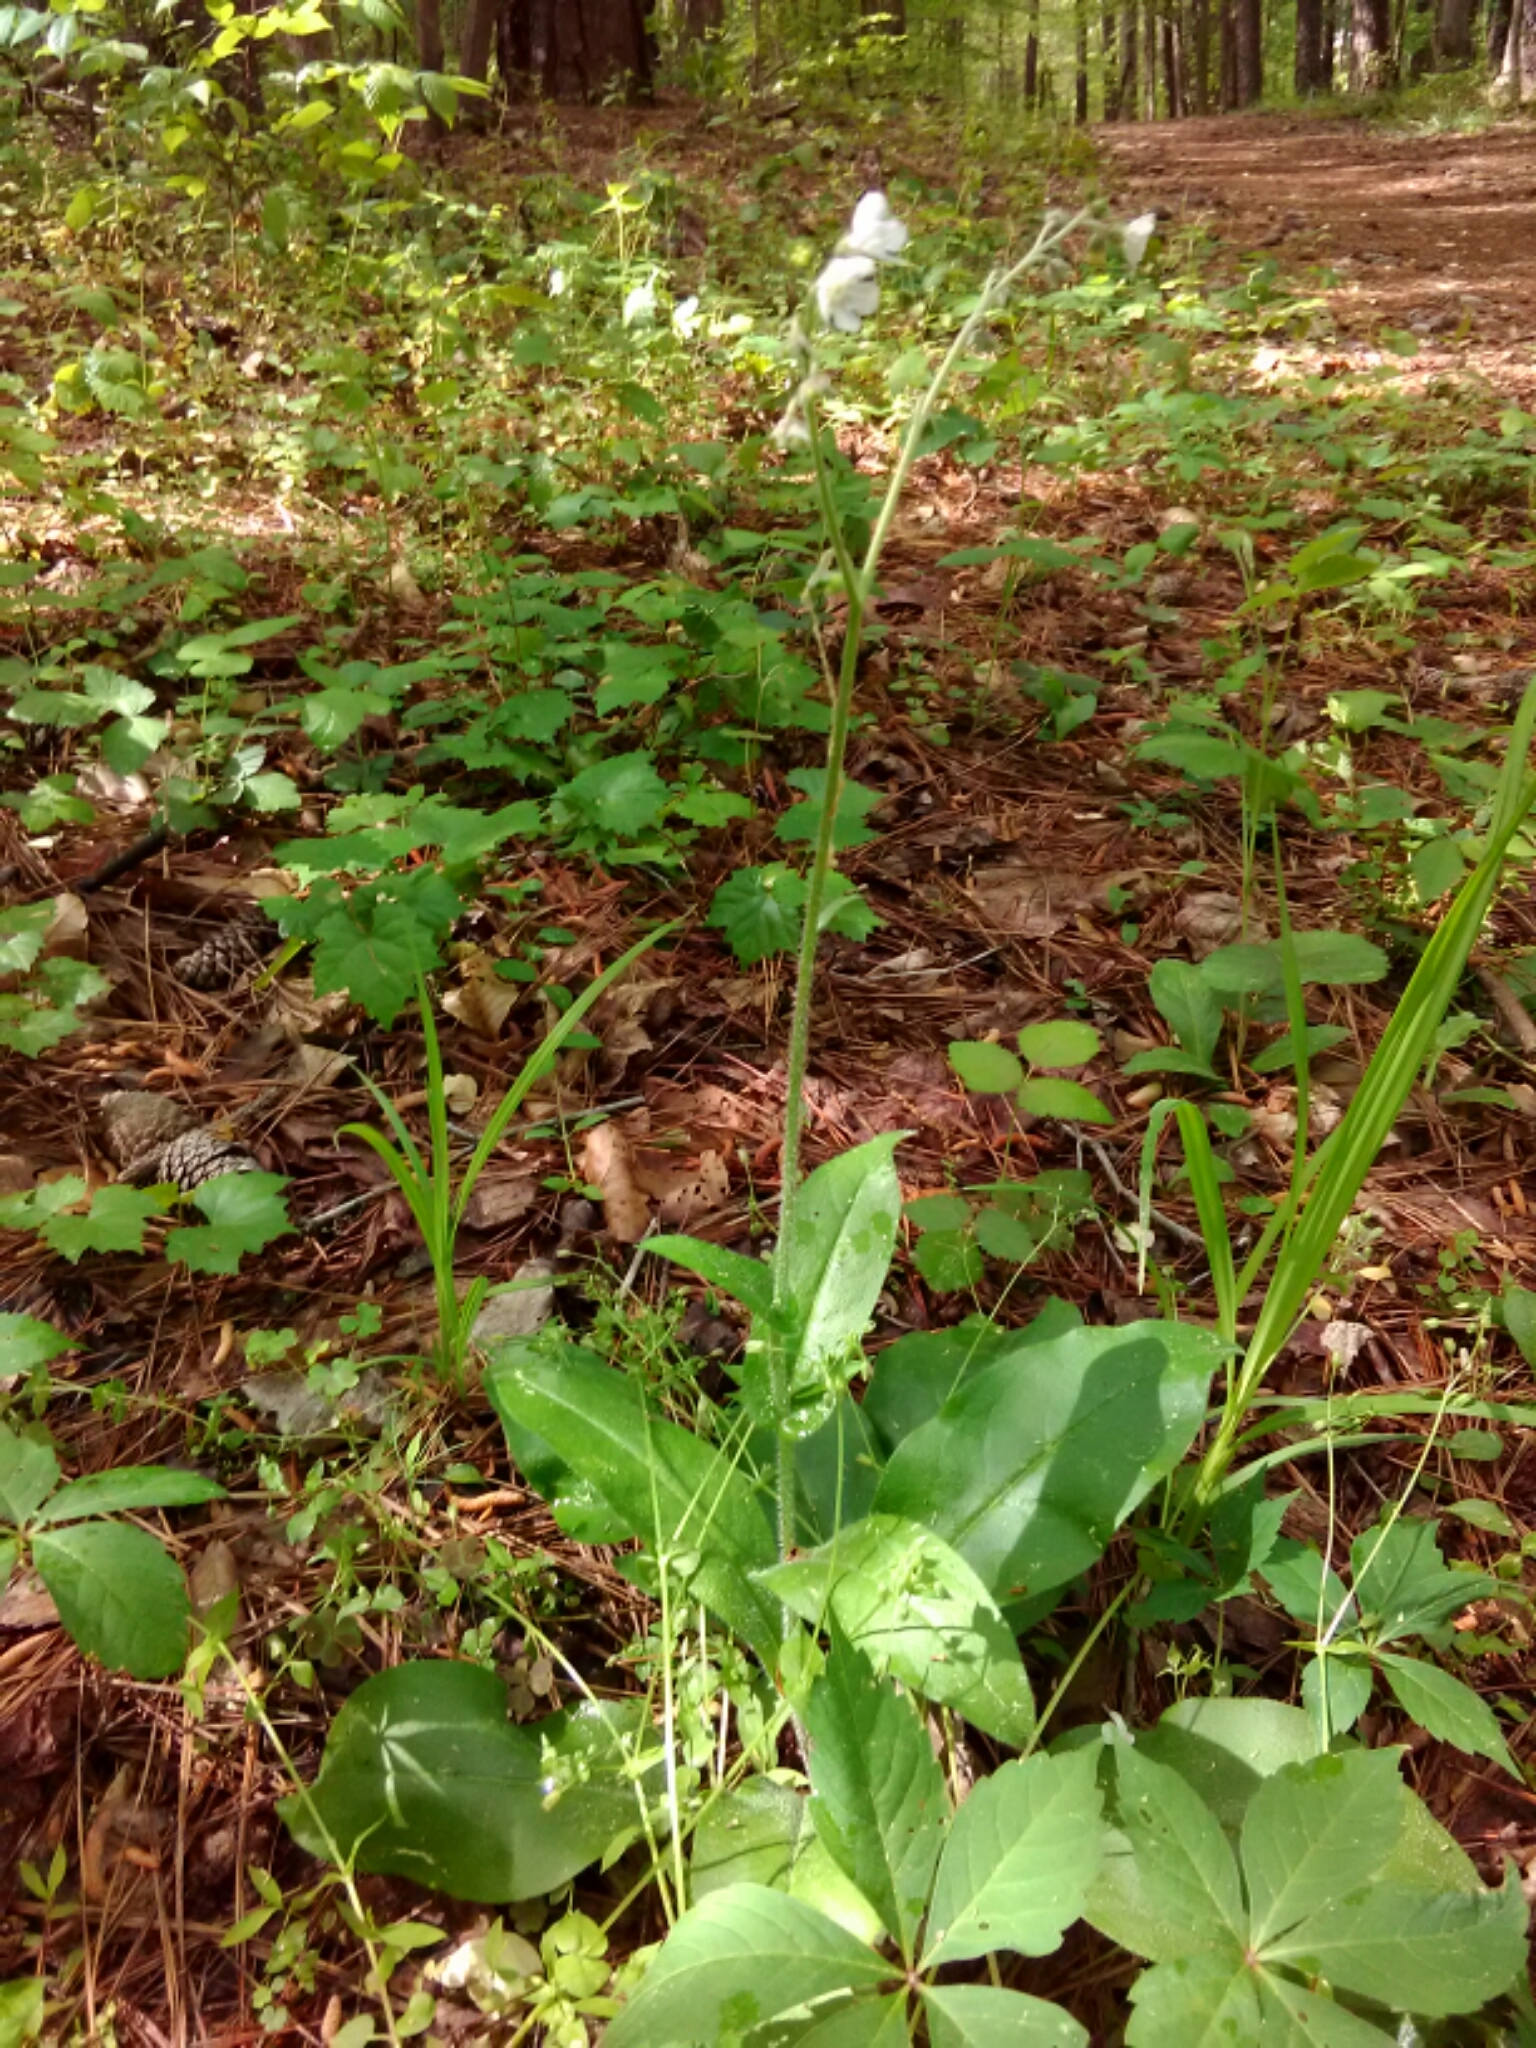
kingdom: Plantae
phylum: Tracheophyta
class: Magnoliopsida
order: Boraginales
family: Boraginaceae
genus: Andersonglossum
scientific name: Andersonglossum virginianum
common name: Wild comfrey
